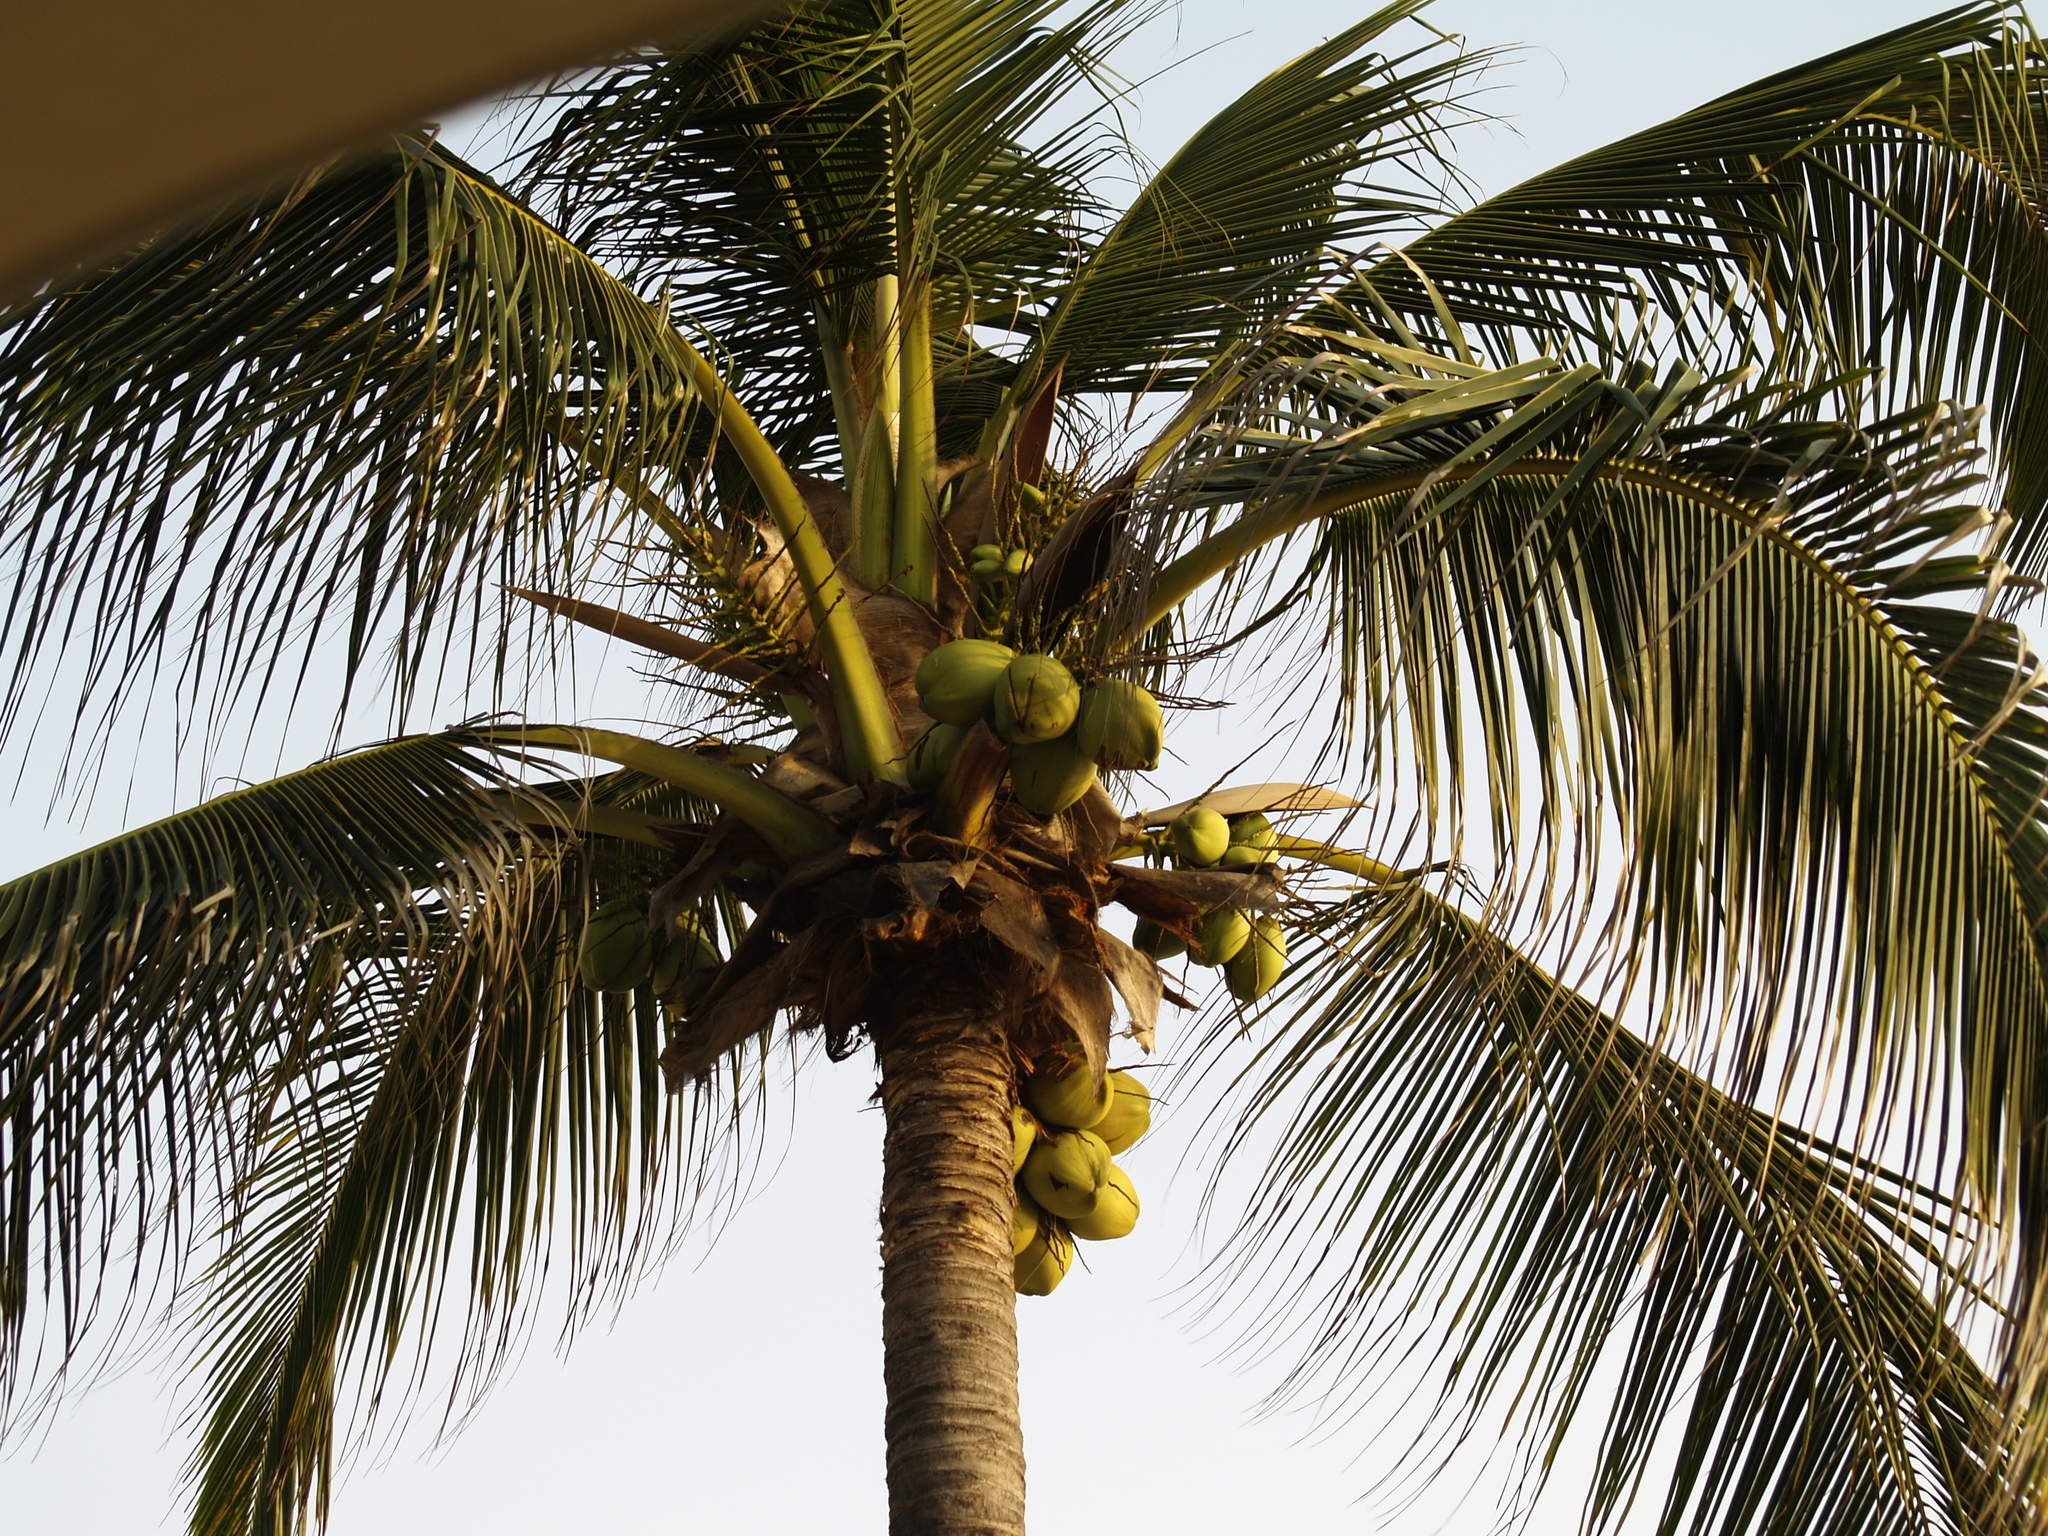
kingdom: Plantae
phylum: Tracheophyta
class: Liliopsida
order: Arecales
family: Arecaceae
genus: Cocos
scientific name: Cocos nucifera
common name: Coconut palm
